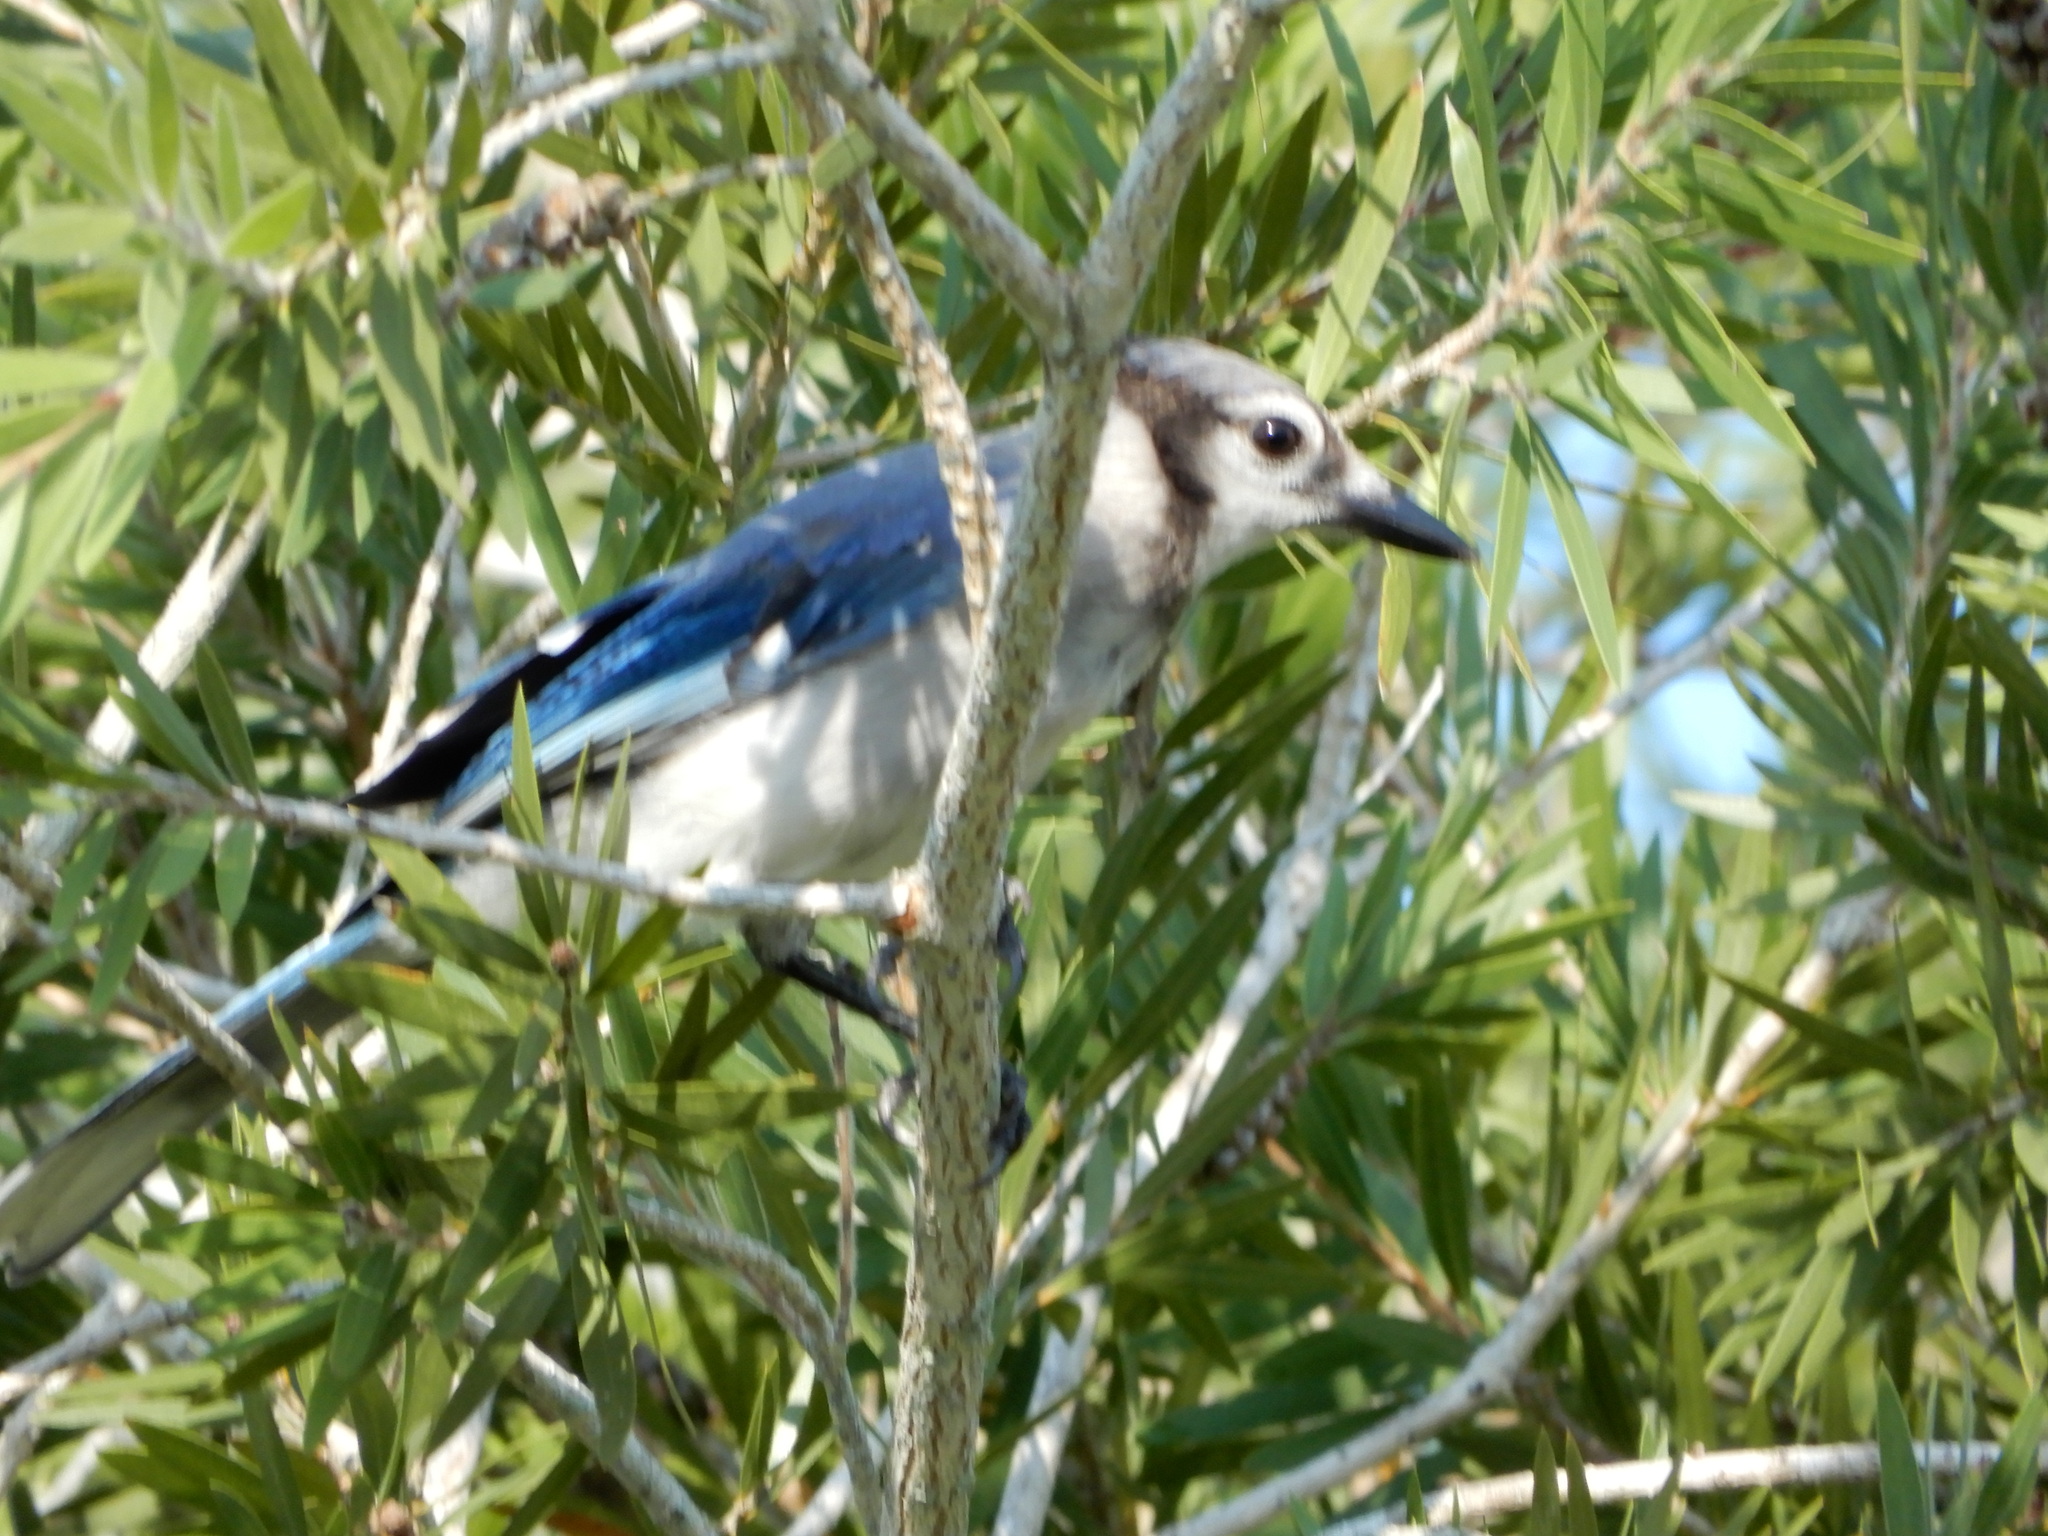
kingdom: Animalia
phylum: Chordata
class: Aves
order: Passeriformes
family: Corvidae
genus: Cyanocitta
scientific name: Cyanocitta cristata
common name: Blue jay
